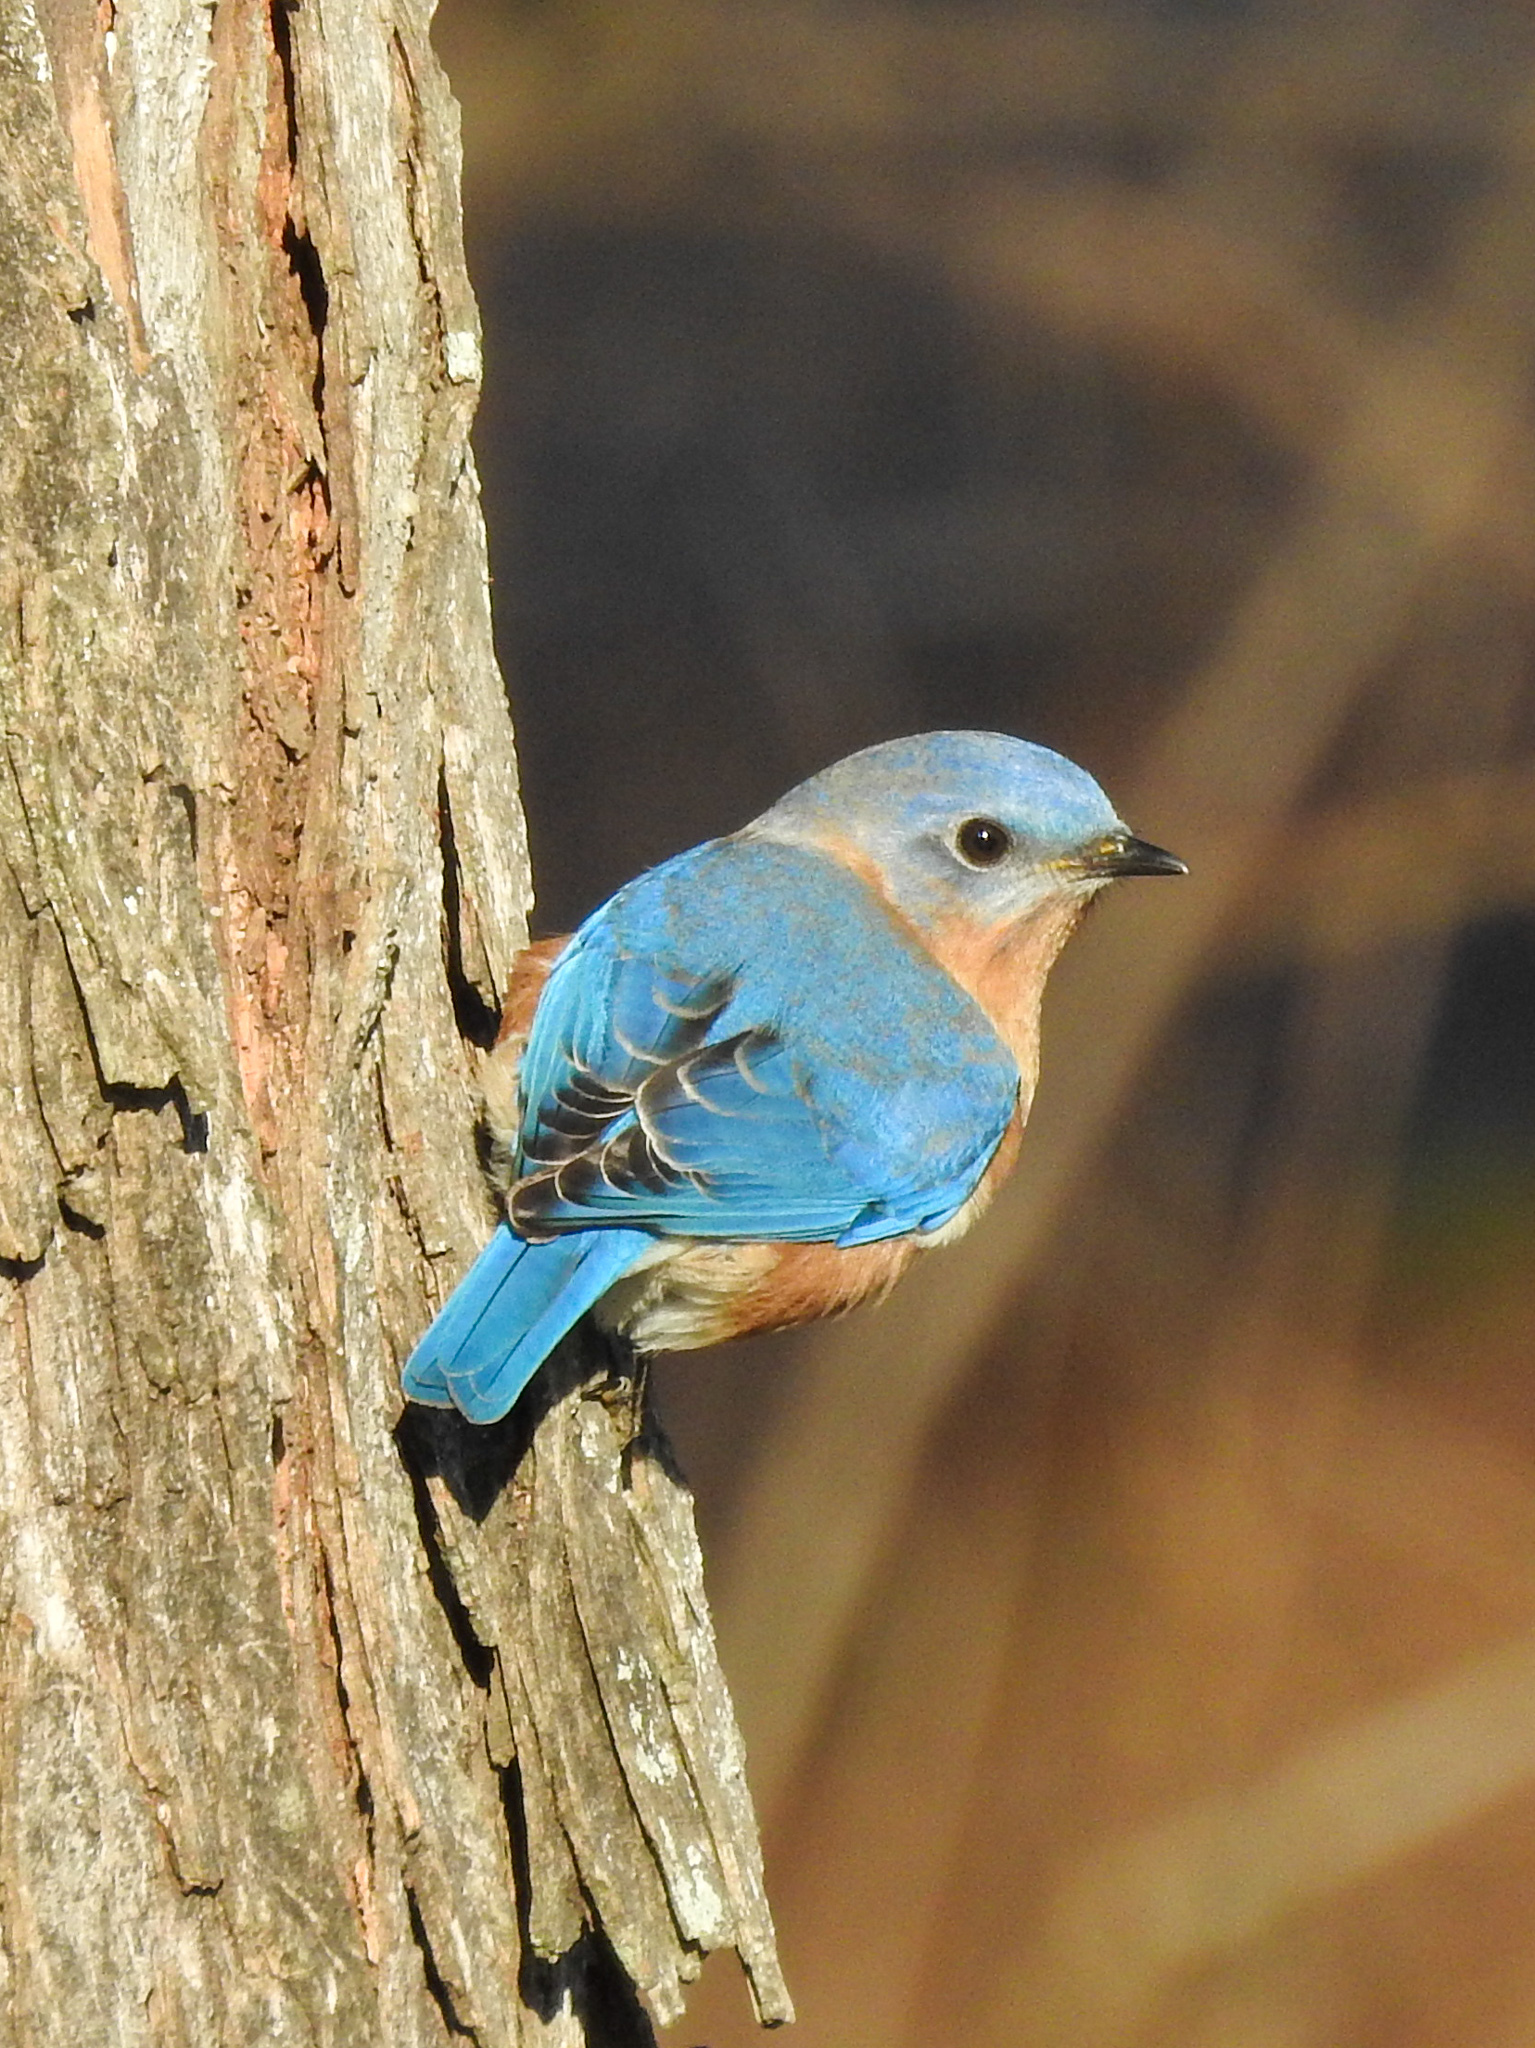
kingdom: Animalia
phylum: Chordata
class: Aves
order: Passeriformes
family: Turdidae
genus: Sialia
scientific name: Sialia sialis
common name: Eastern bluebird
